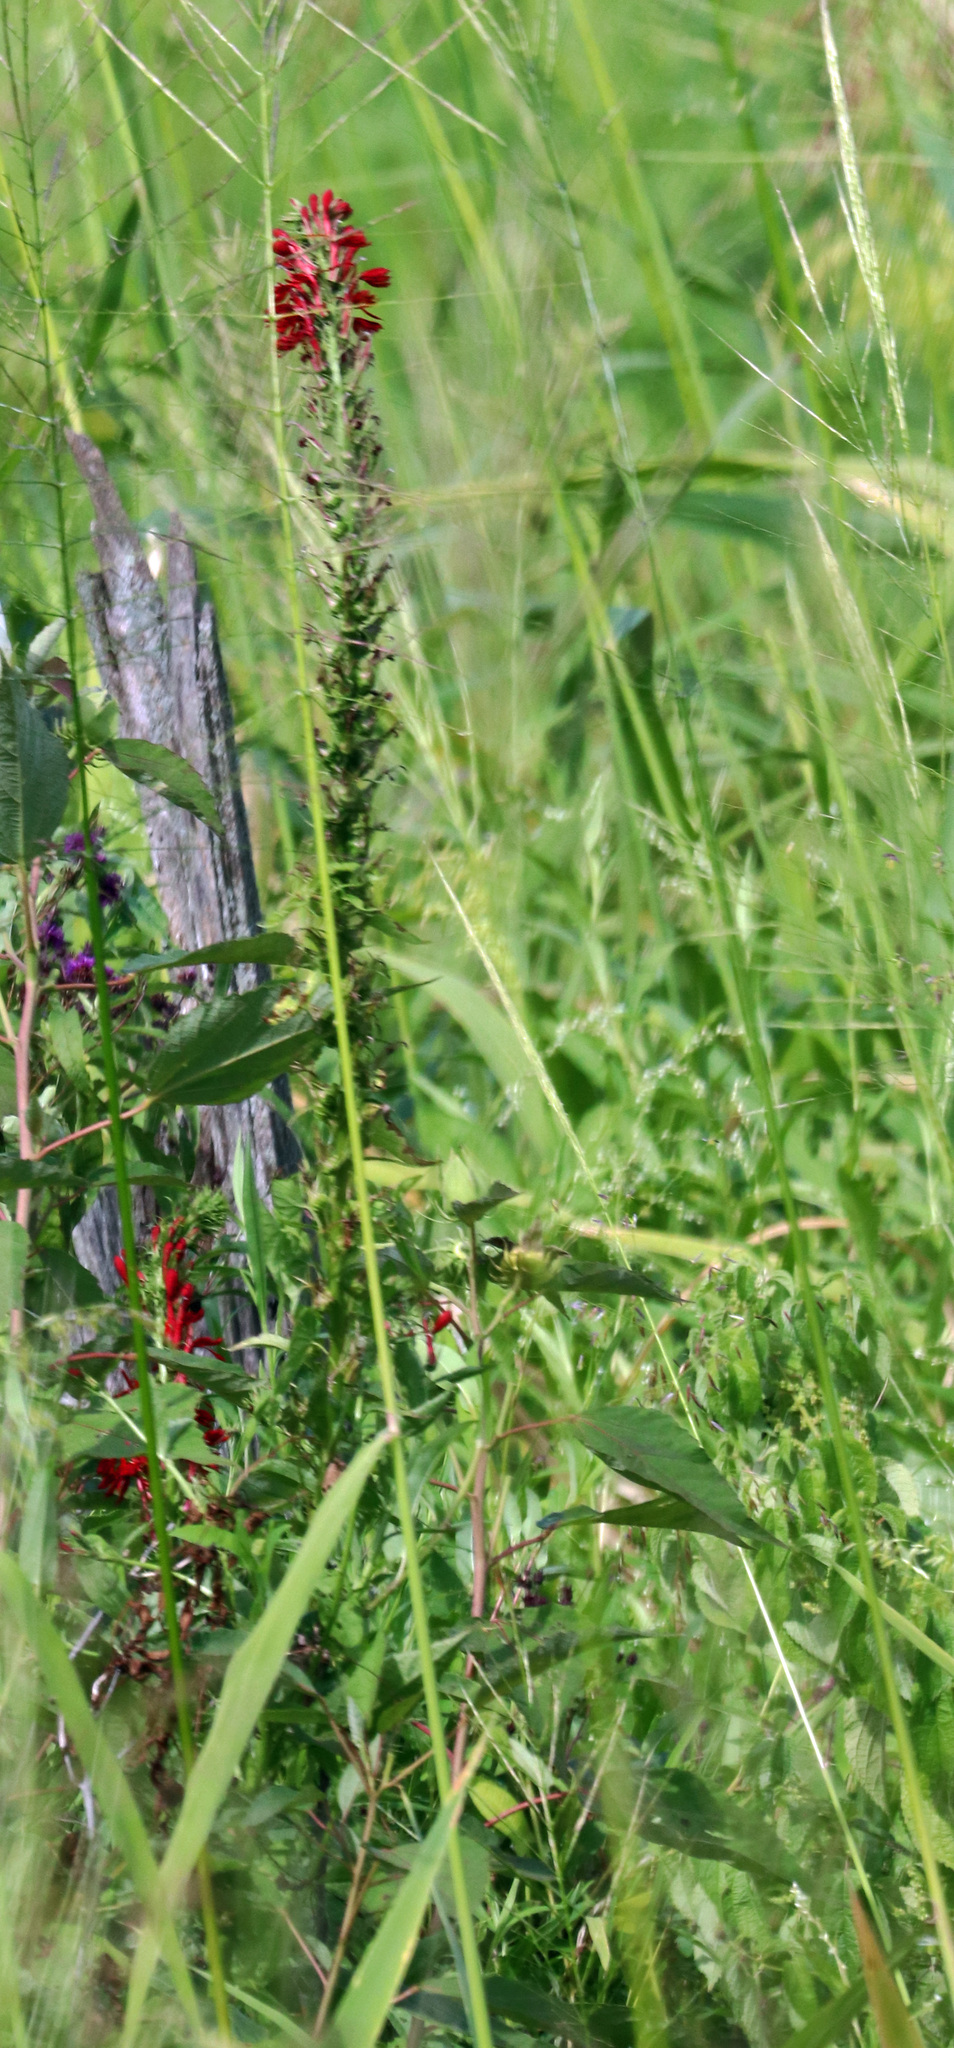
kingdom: Plantae
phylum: Tracheophyta
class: Magnoliopsida
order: Asterales
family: Campanulaceae
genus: Lobelia
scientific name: Lobelia cardinalis
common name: Cardinal flower
